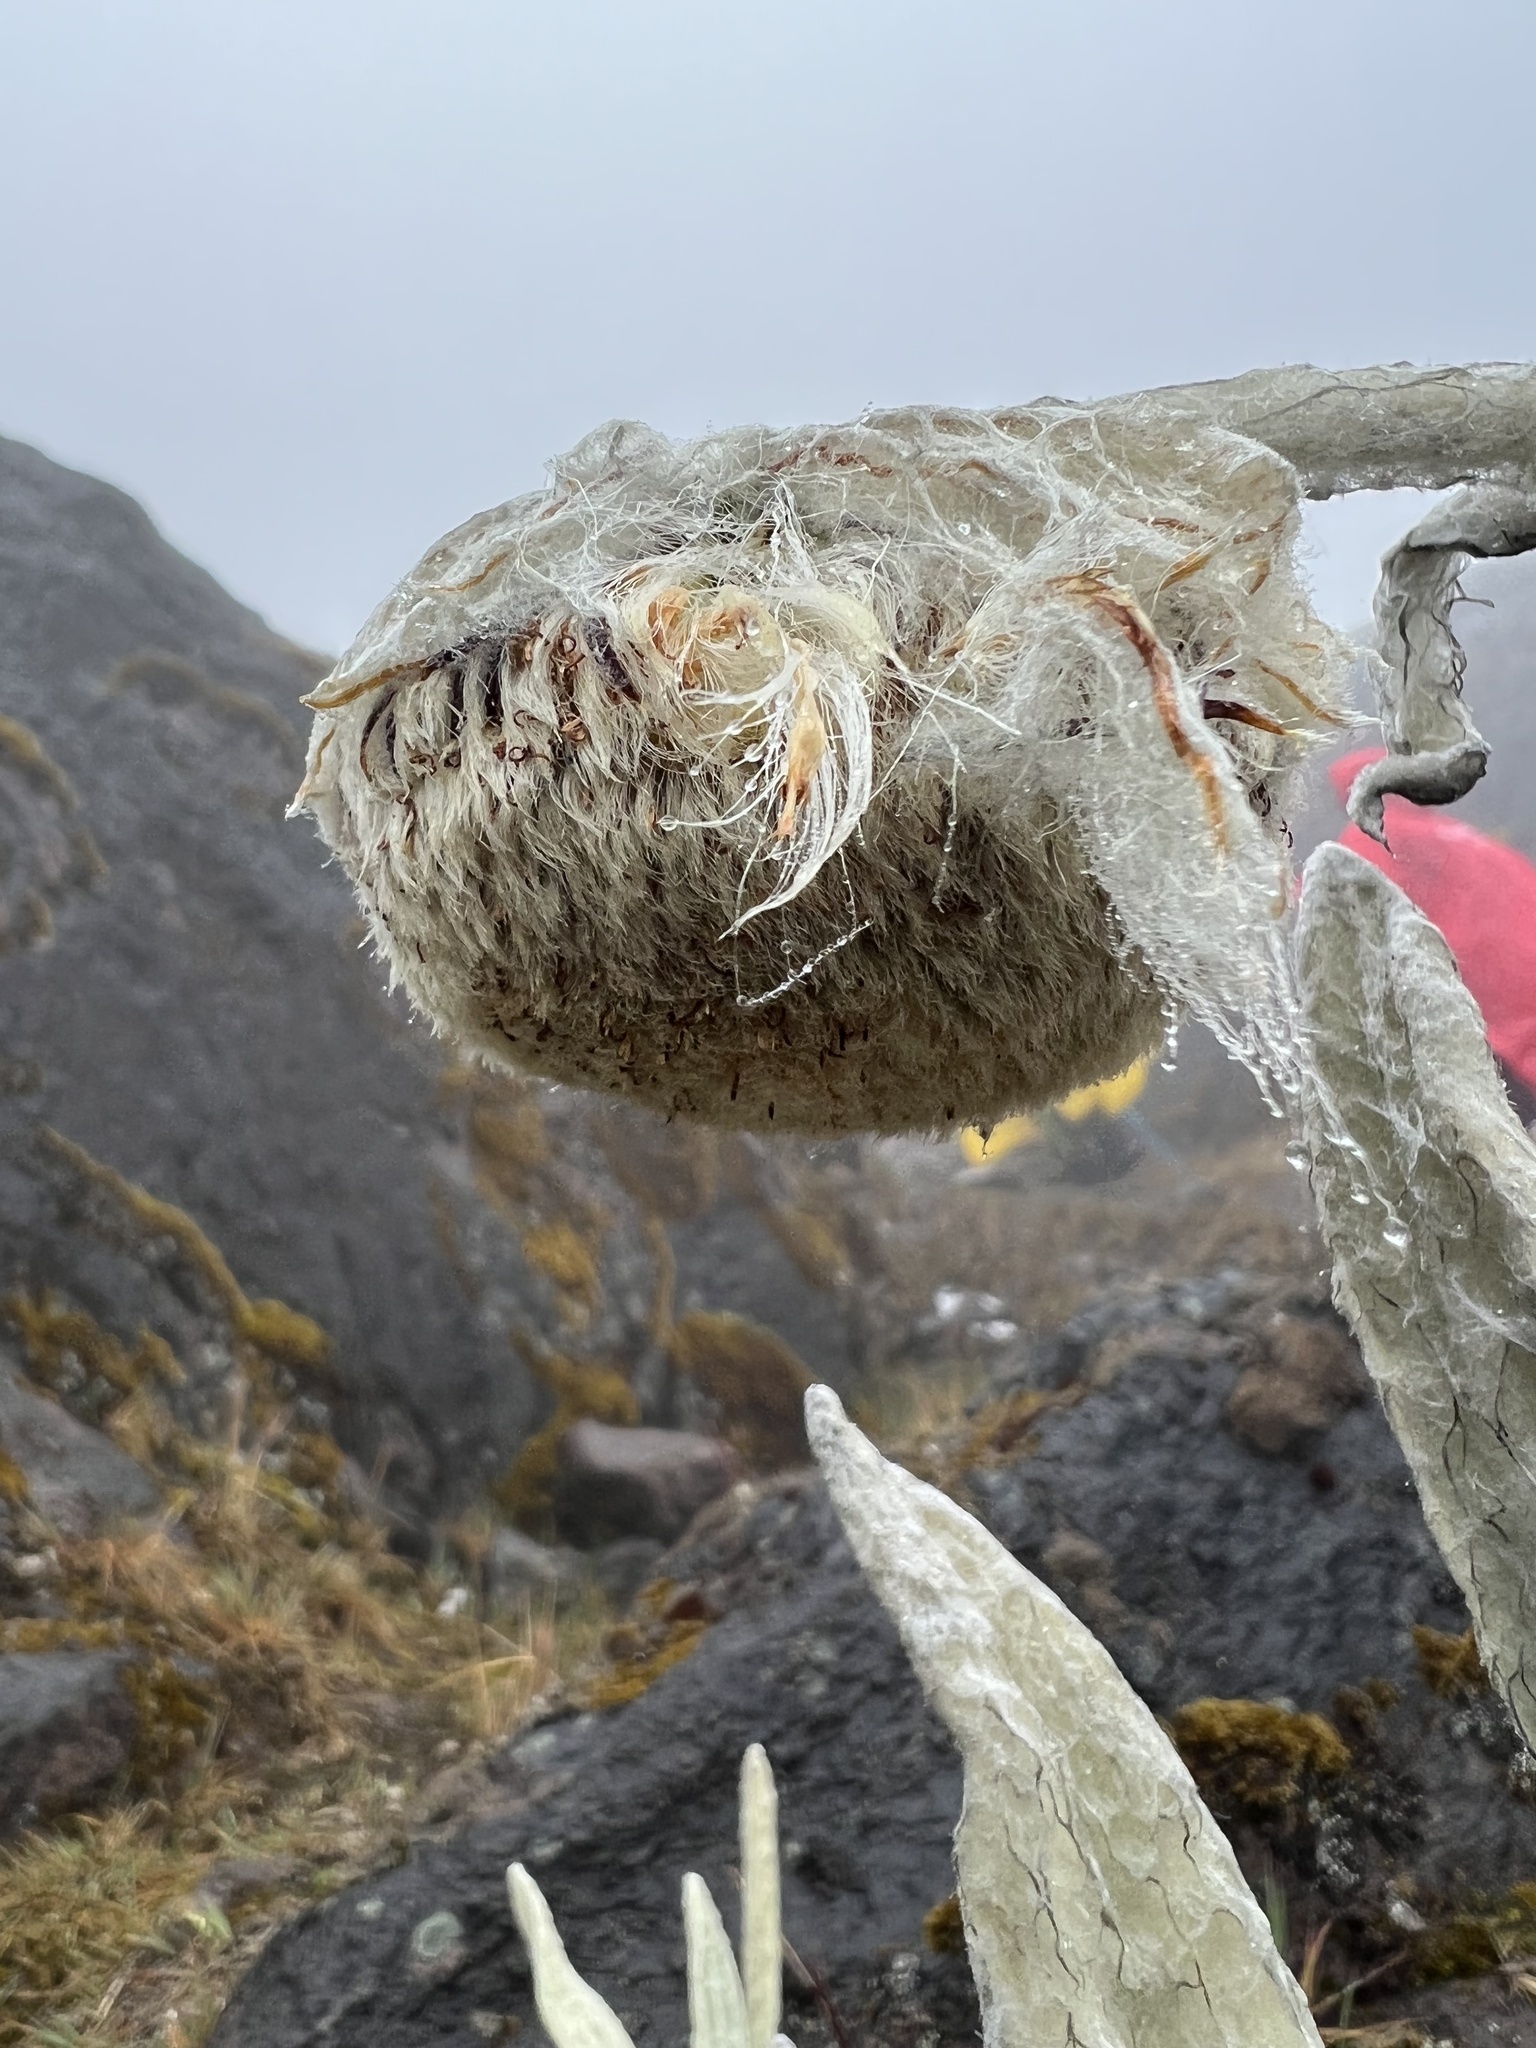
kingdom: Plantae
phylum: Tracheophyta
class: Magnoliopsida
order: Asterales
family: Asteraceae
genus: Culcitium
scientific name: Culcitium canescens
